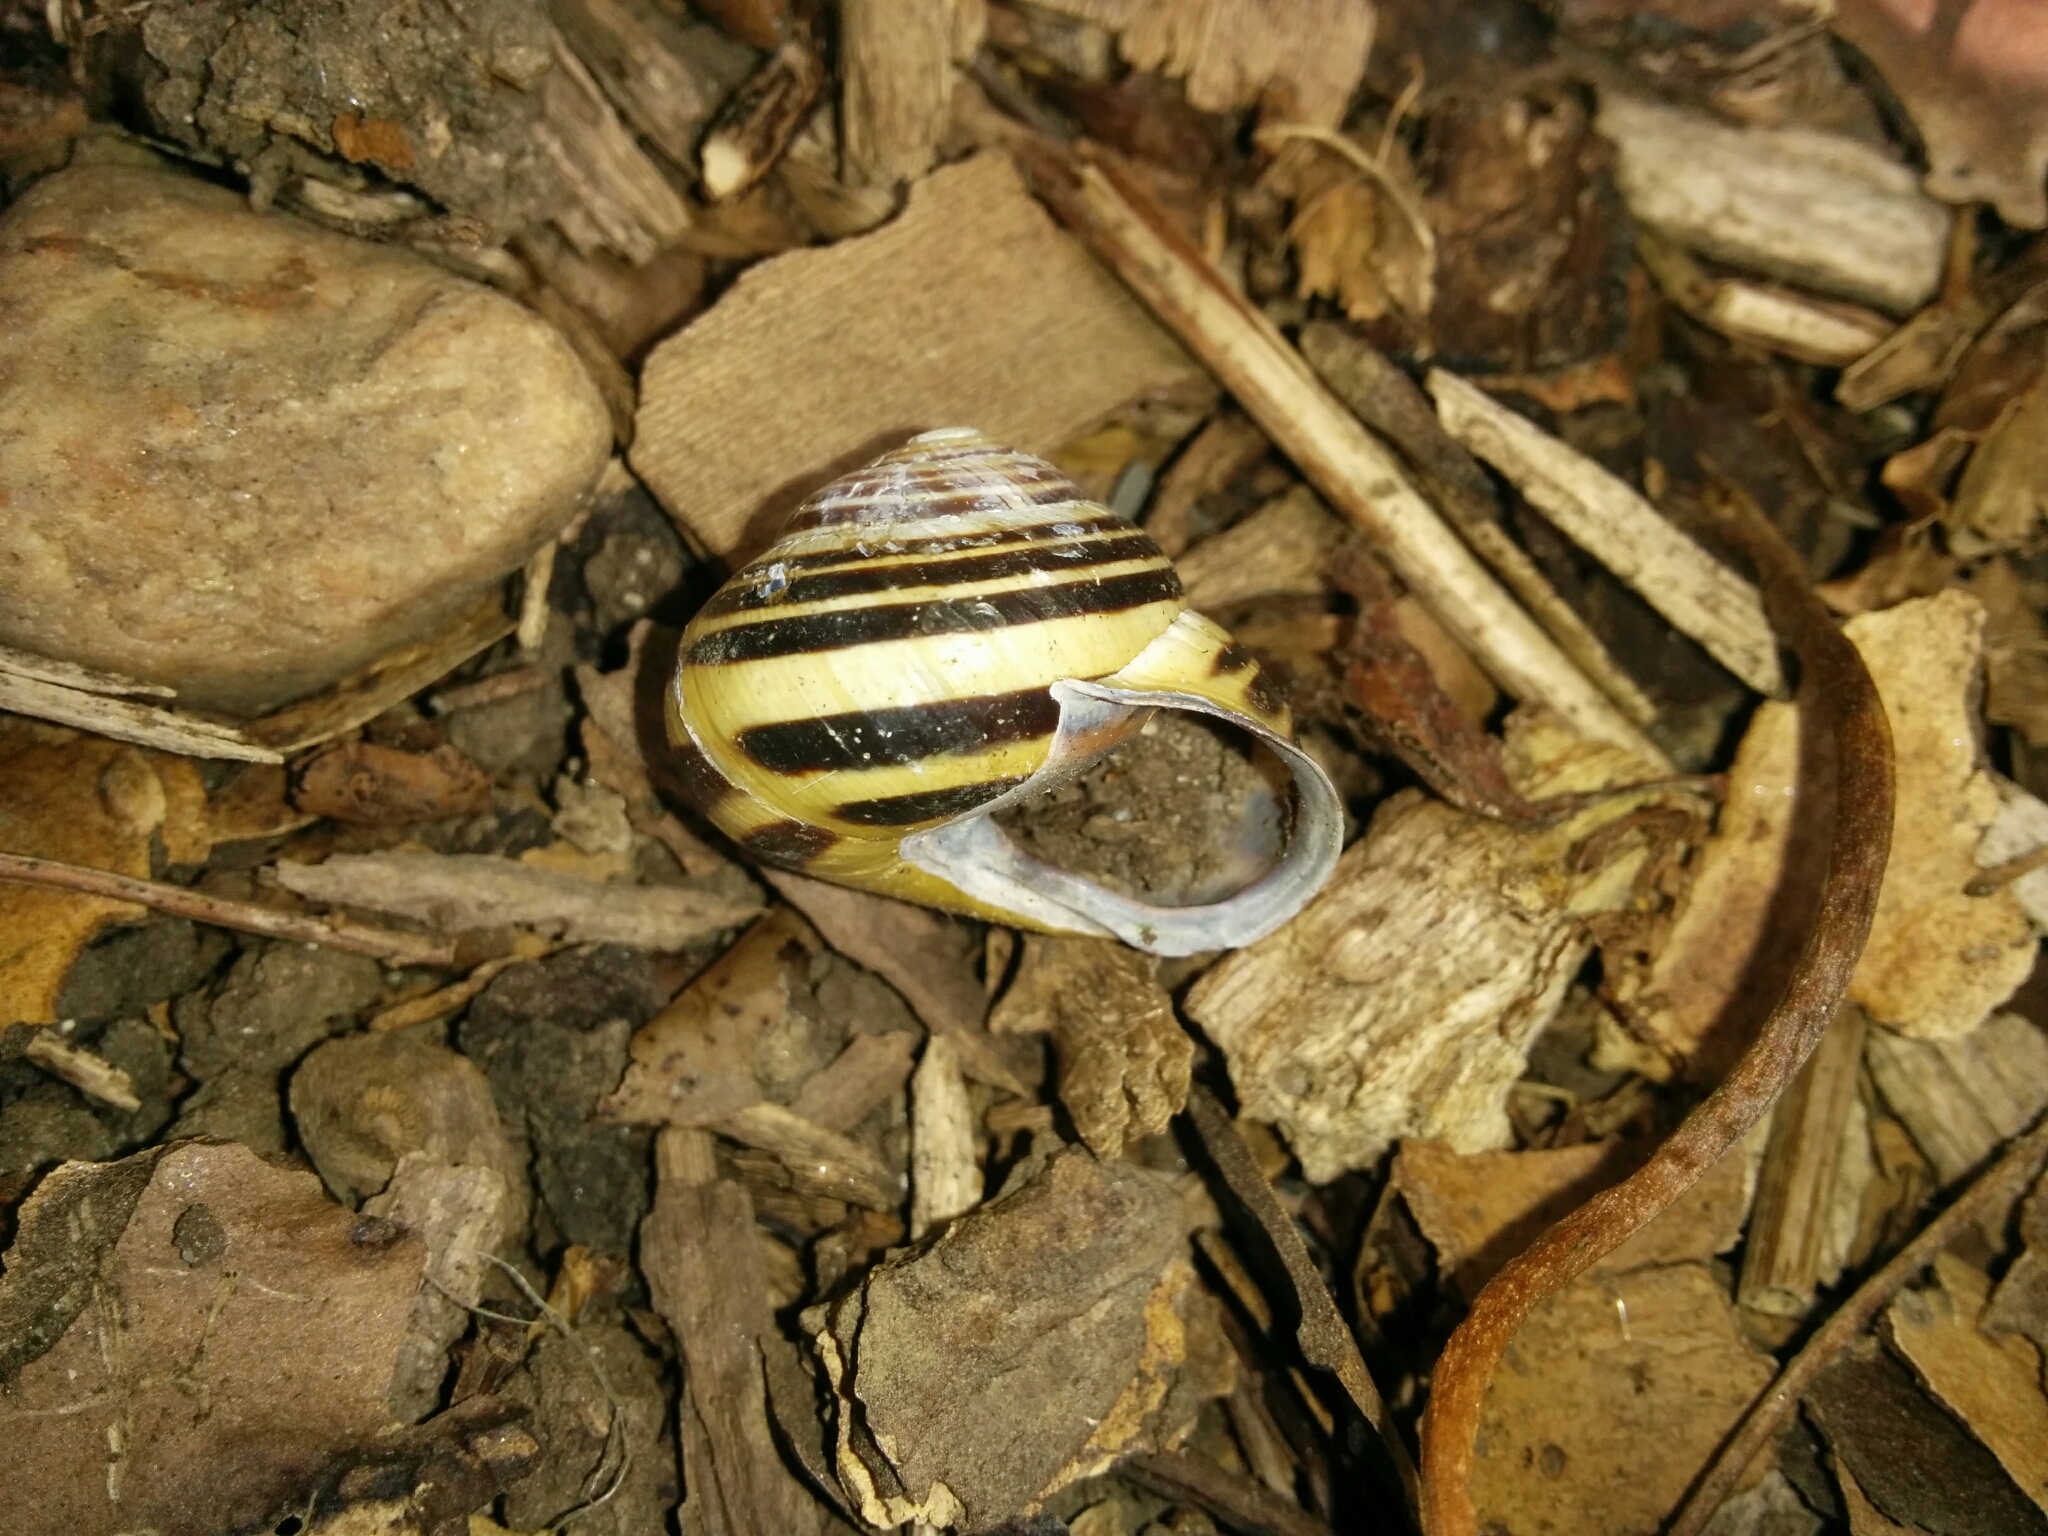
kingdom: Animalia
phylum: Mollusca
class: Gastropoda
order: Stylommatophora
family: Helicidae
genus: Cepaea
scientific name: Cepaea nemoralis
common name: Grovesnail
